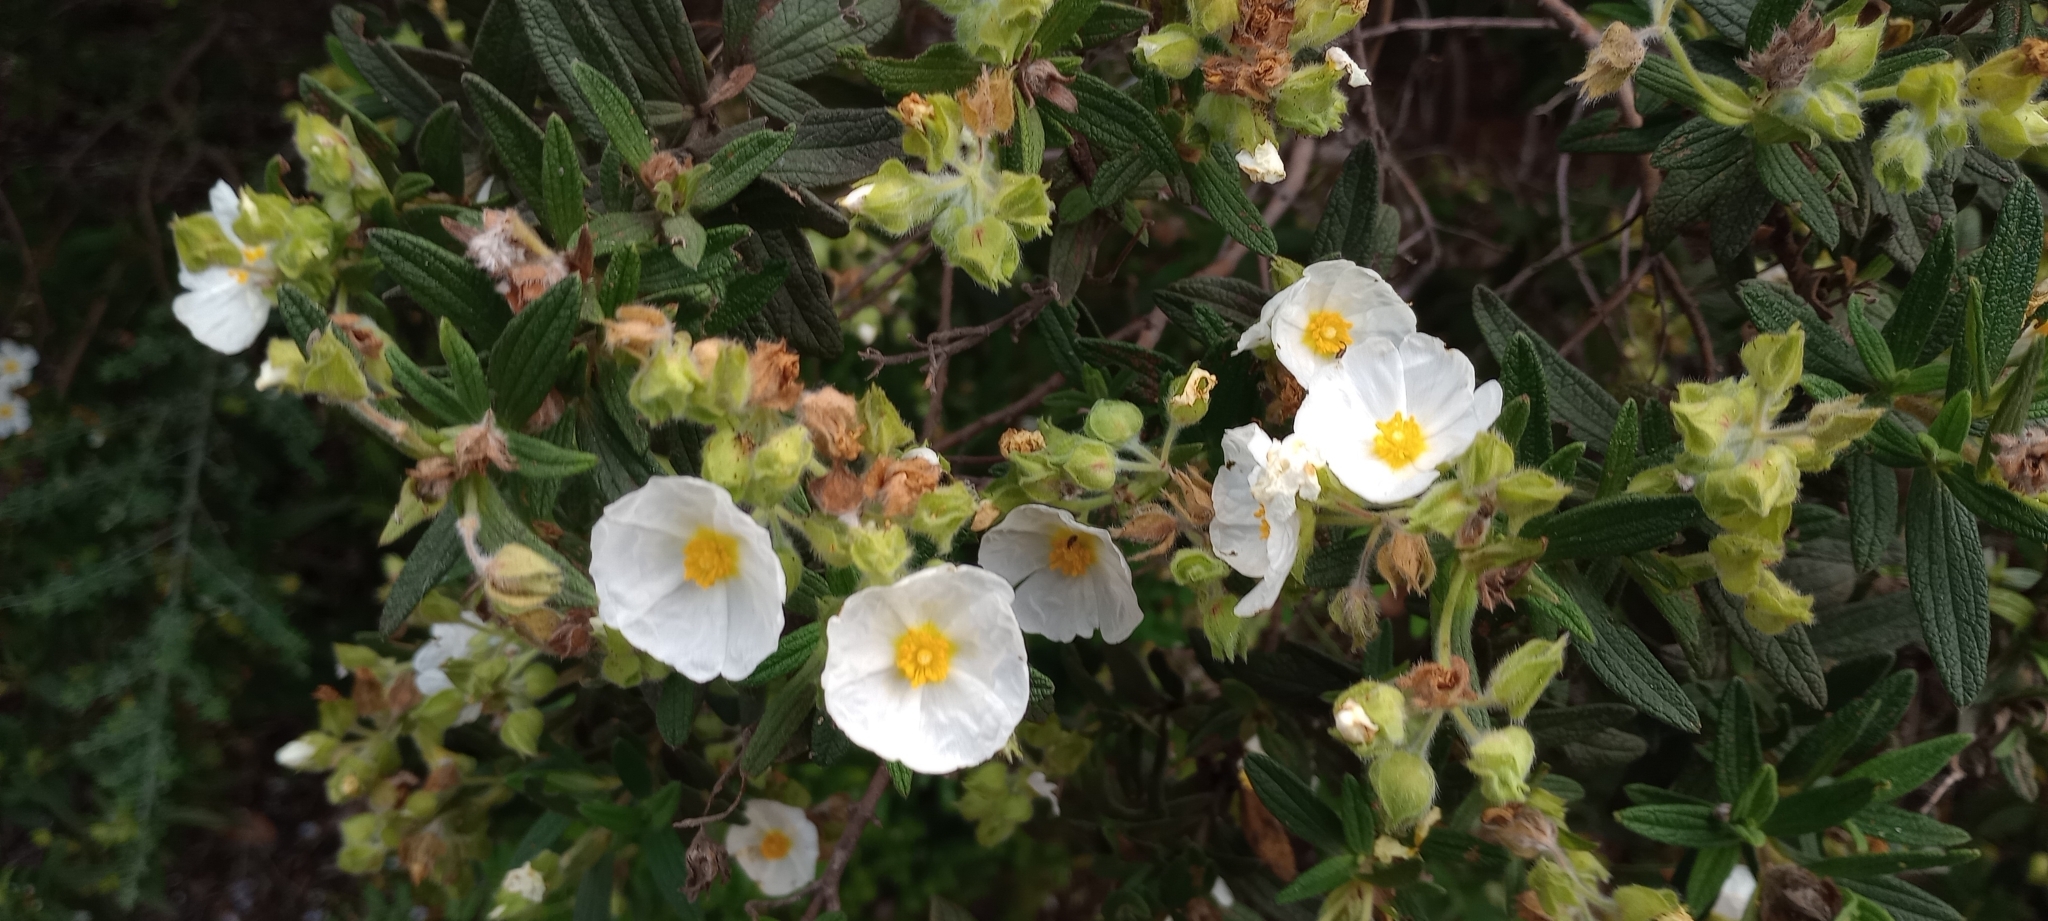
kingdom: Plantae
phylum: Tracheophyta
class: Magnoliopsida
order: Malvales
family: Cistaceae
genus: Cistus
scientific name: Cistus monspeliensis
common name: Montpelier cistus
